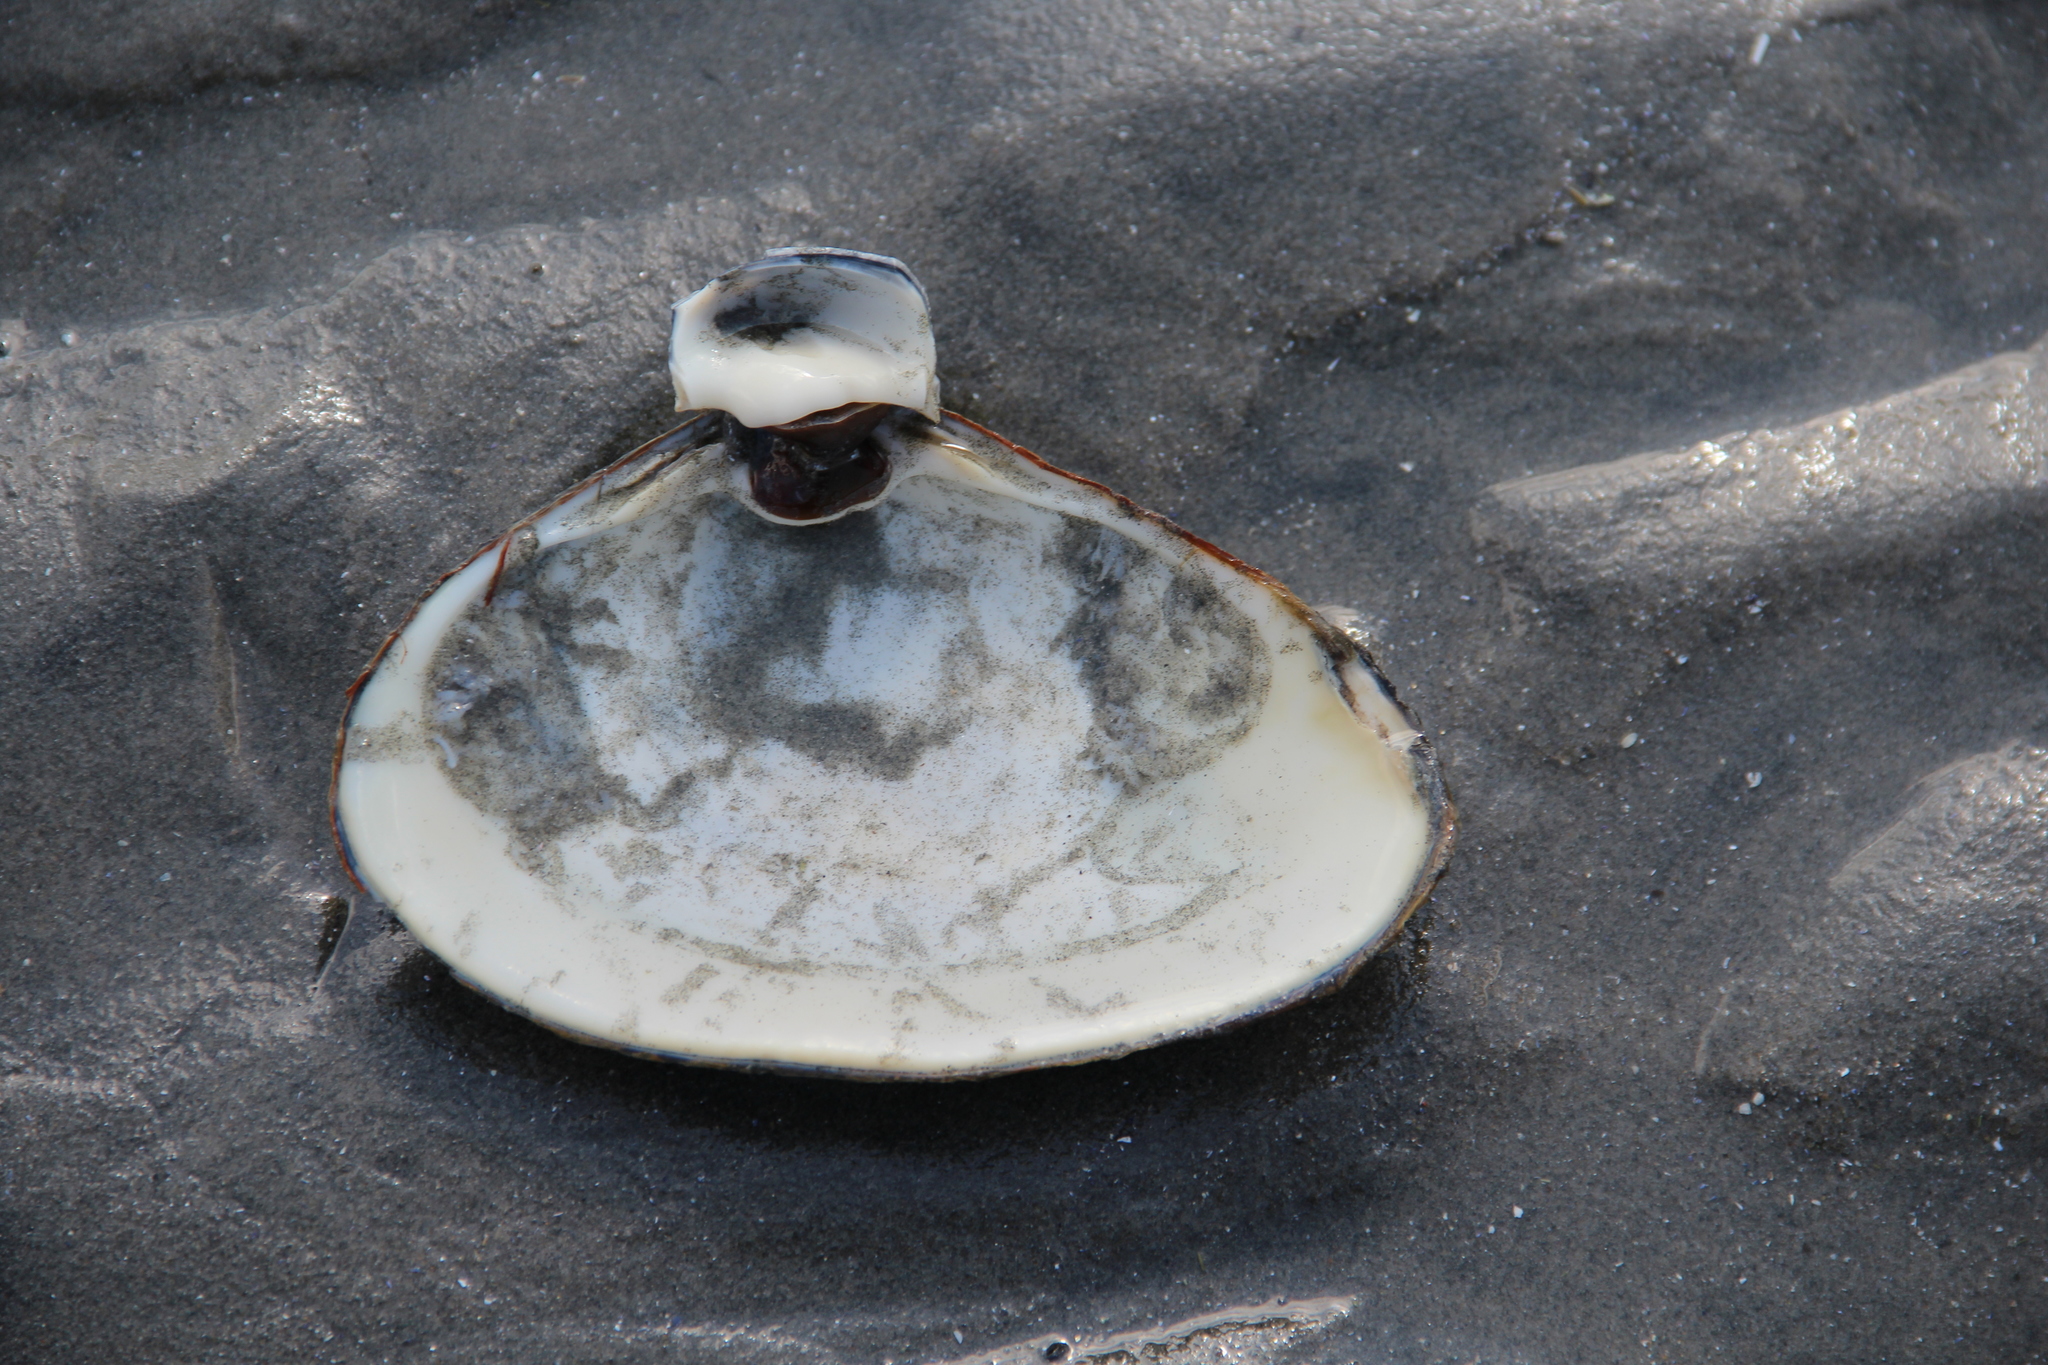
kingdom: Animalia
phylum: Mollusca
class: Bivalvia
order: Venerida
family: Mactridae
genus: Spisula
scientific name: Spisula solidissima
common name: Atlantic surf clam
